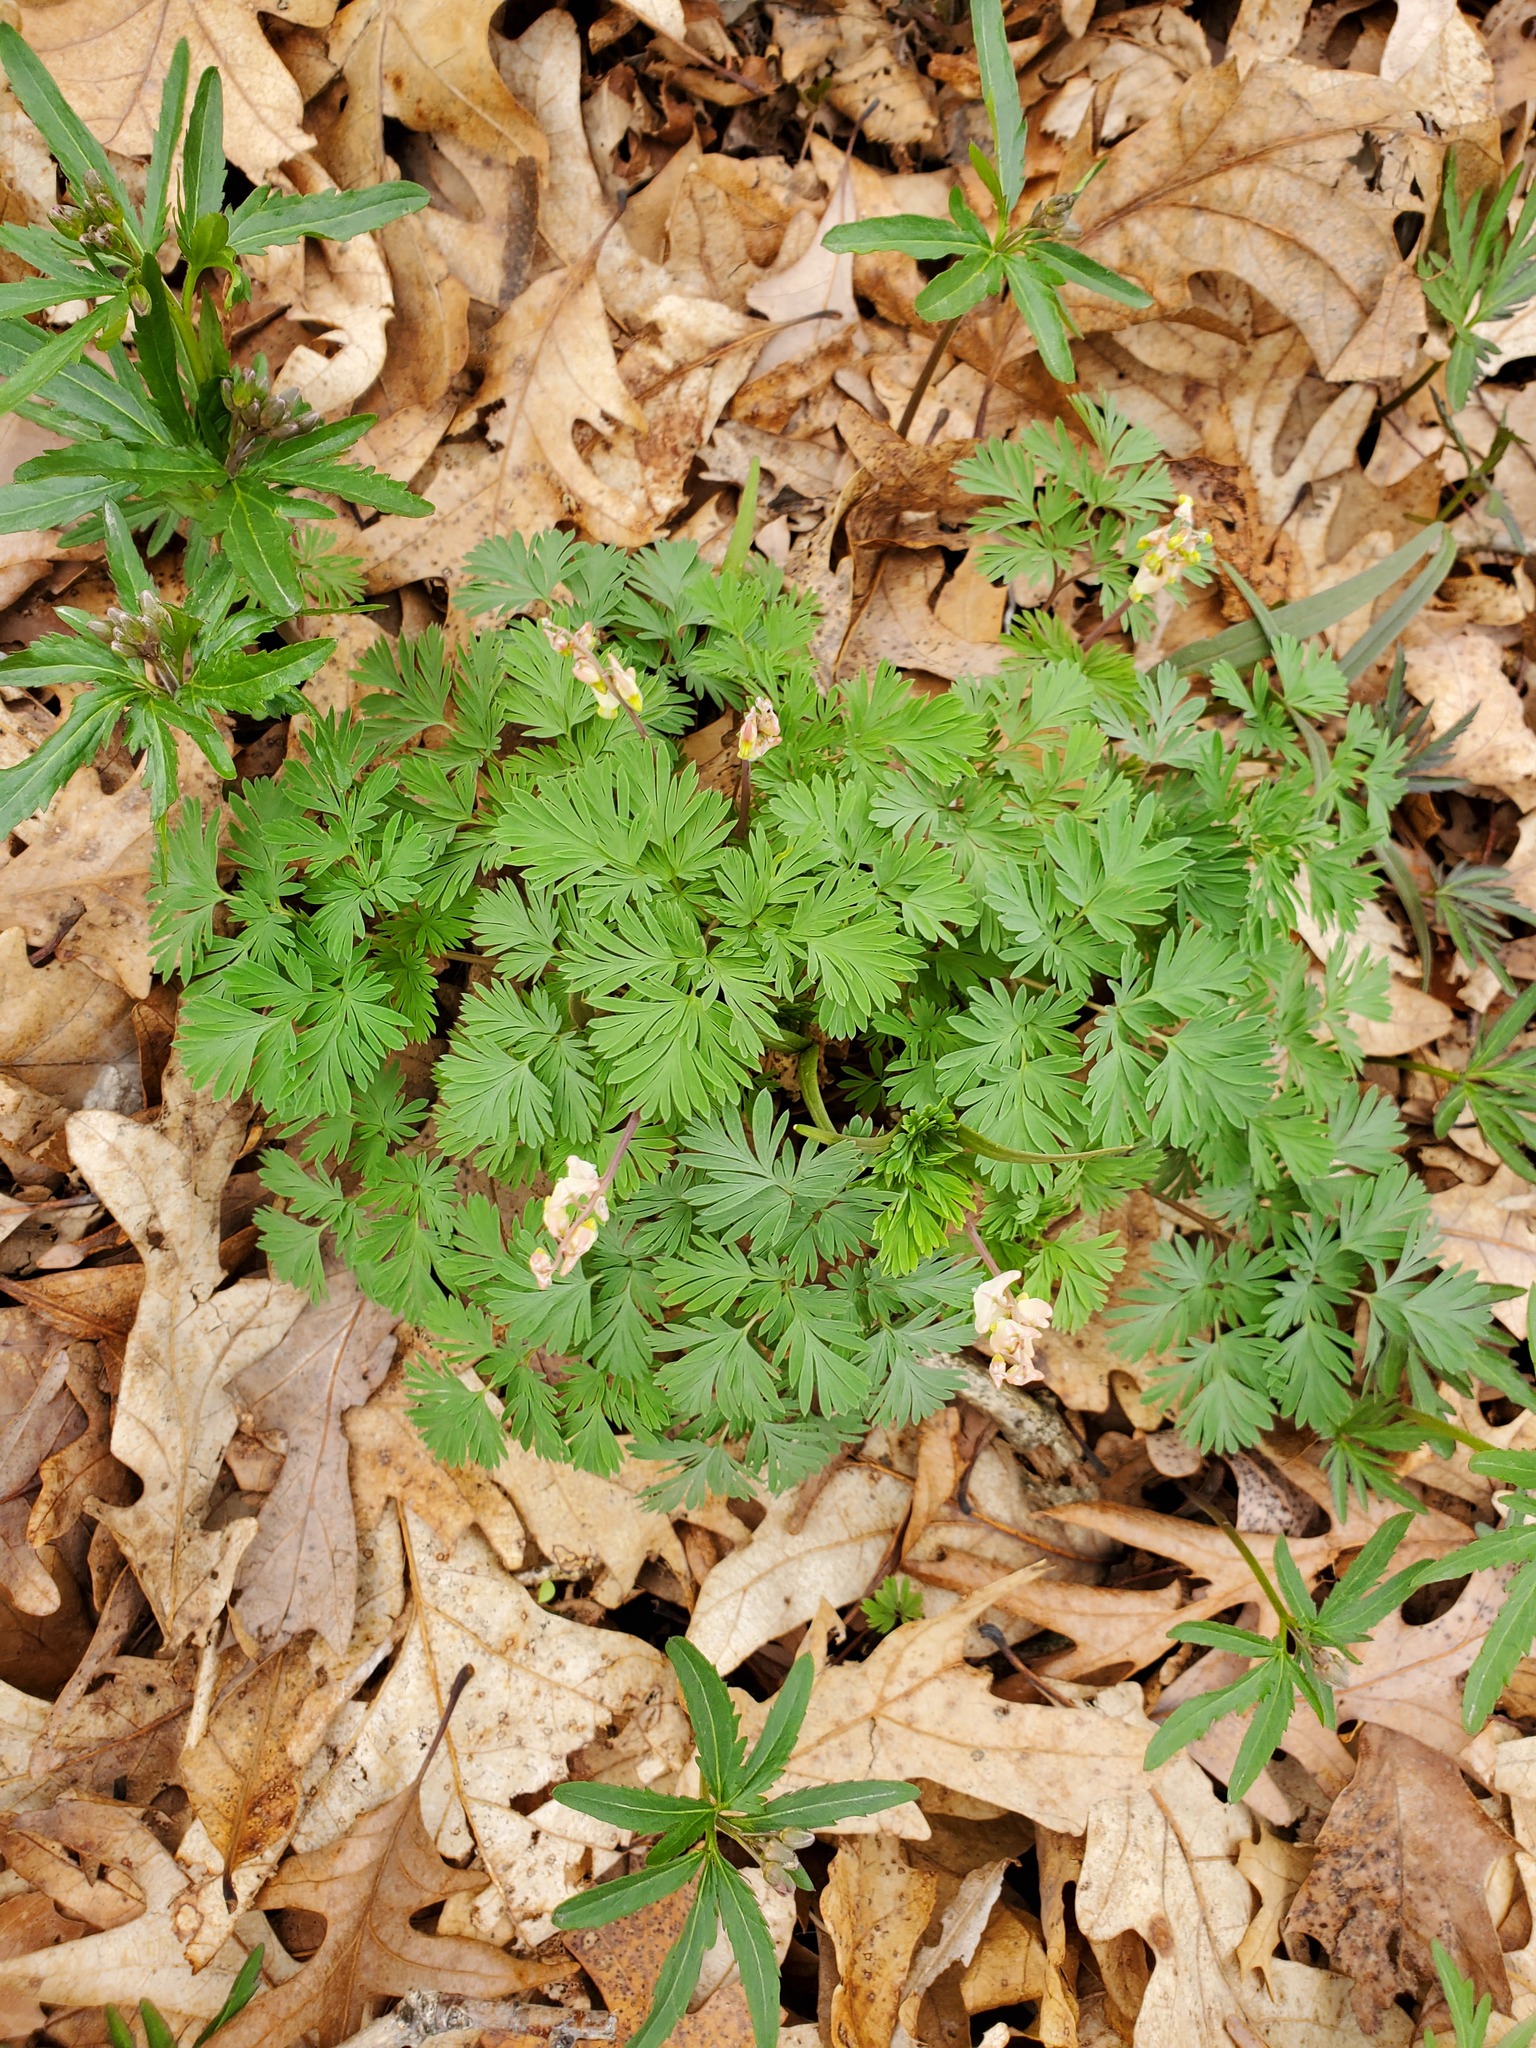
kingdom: Plantae
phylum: Tracheophyta
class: Magnoliopsida
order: Ranunculales
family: Papaveraceae
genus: Dicentra
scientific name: Dicentra cucullaria
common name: Dutchman's breeches
